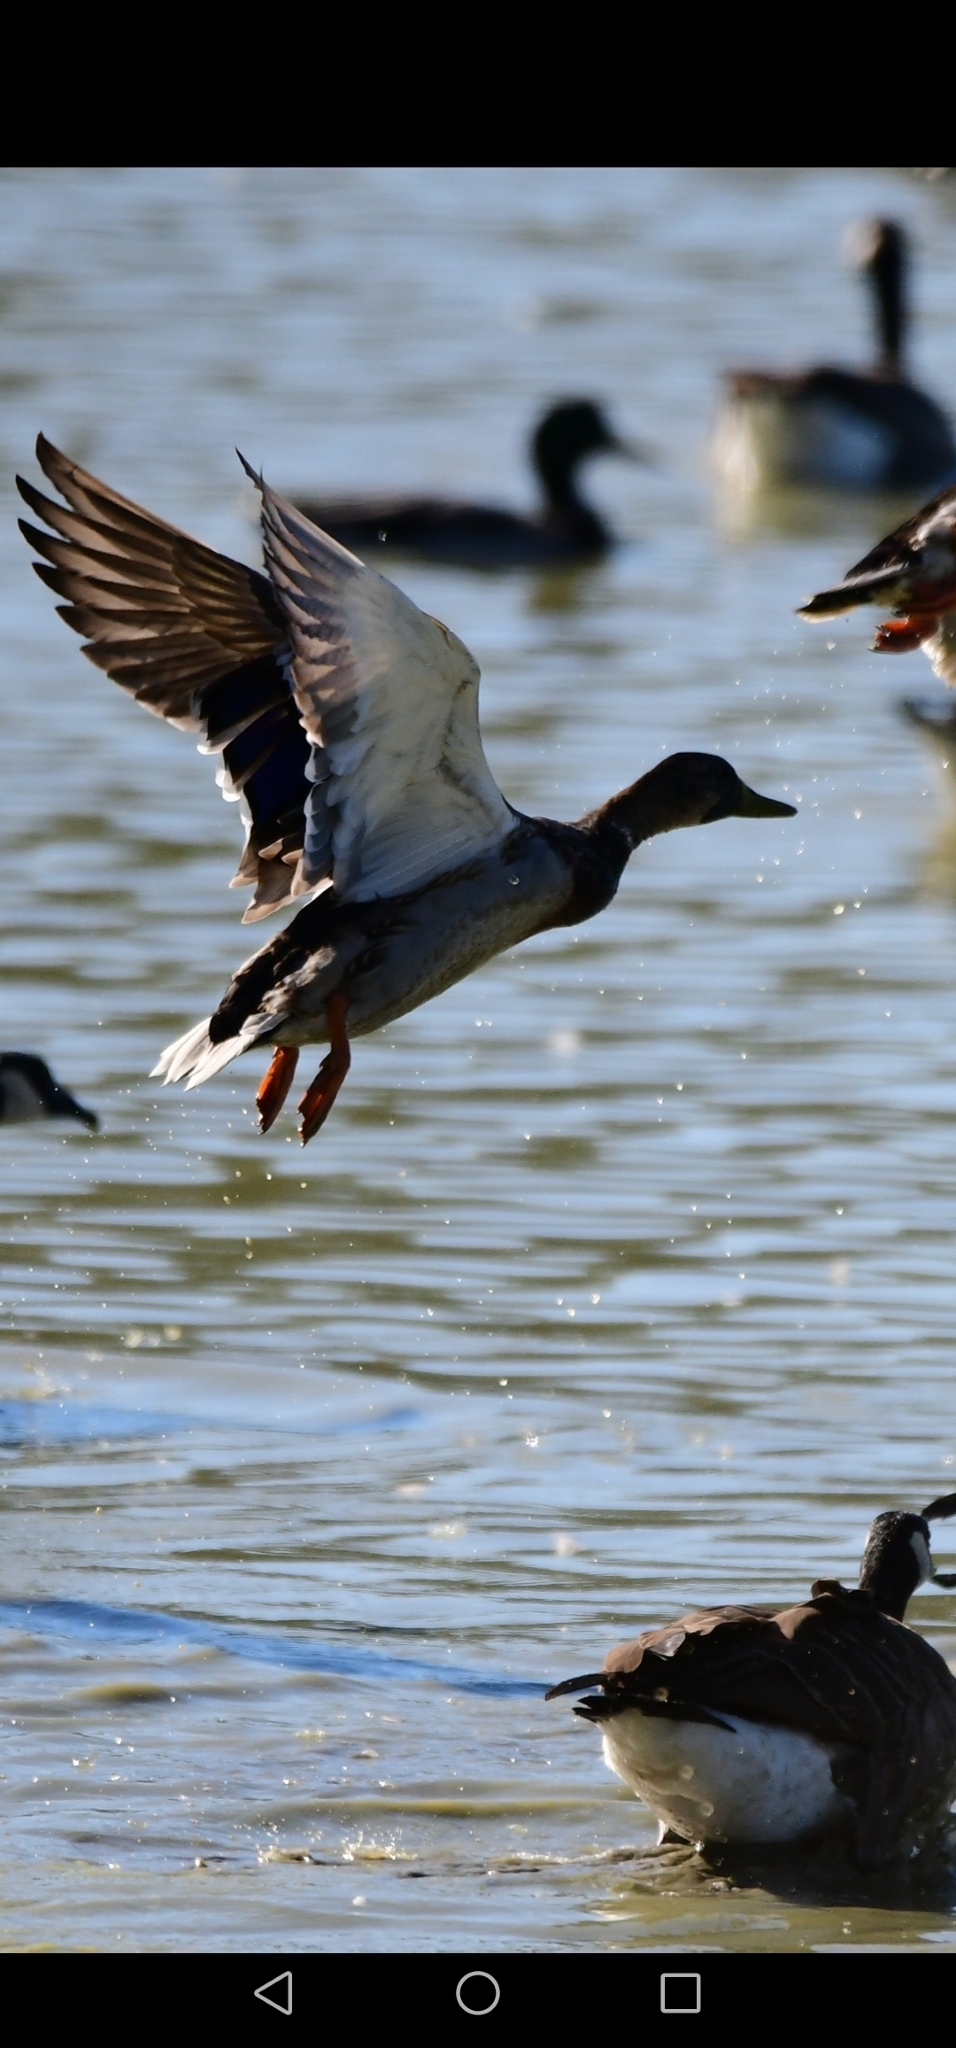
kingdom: Animalia
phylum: Chordata
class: Aves
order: Anseriformes
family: Anatidae
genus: Anas
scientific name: Anas platyrhynchos
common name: Mallard
